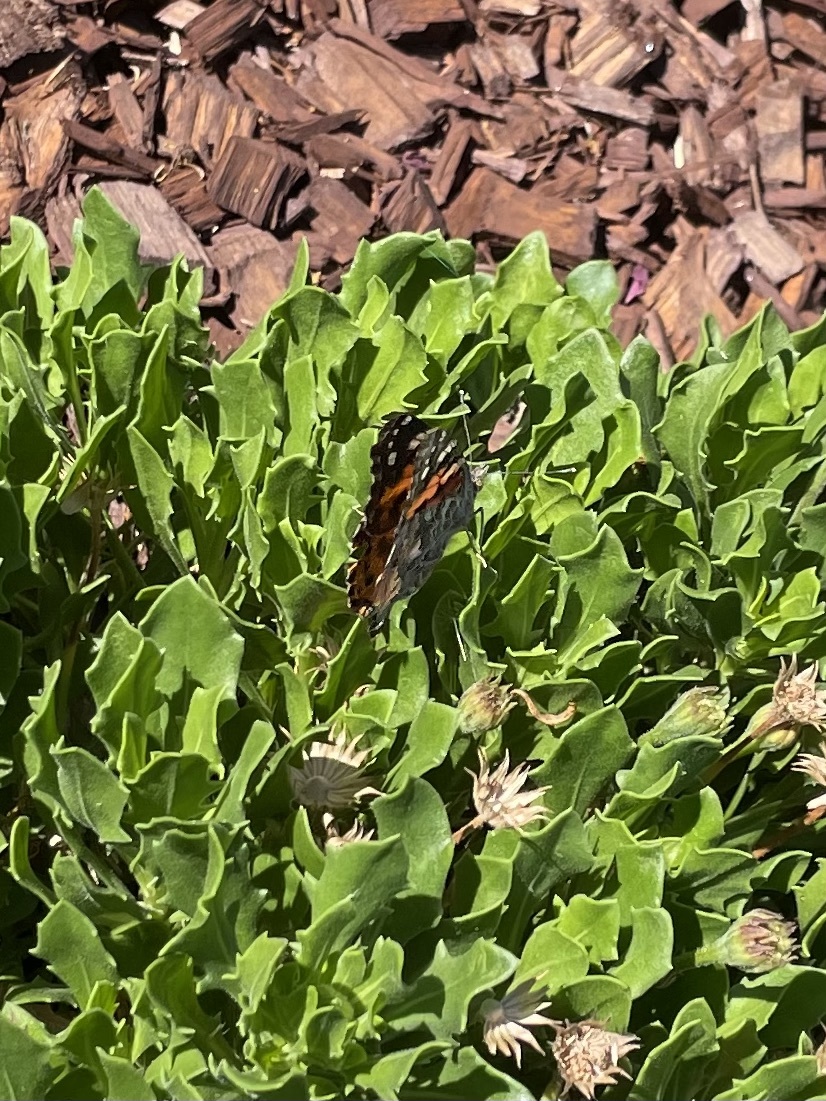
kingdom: Animalia
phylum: Arthropoda
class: Insecta
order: Lepidoptera
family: Nymphalidae
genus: Vanessa
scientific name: Vanessa cardui
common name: Painted lady
